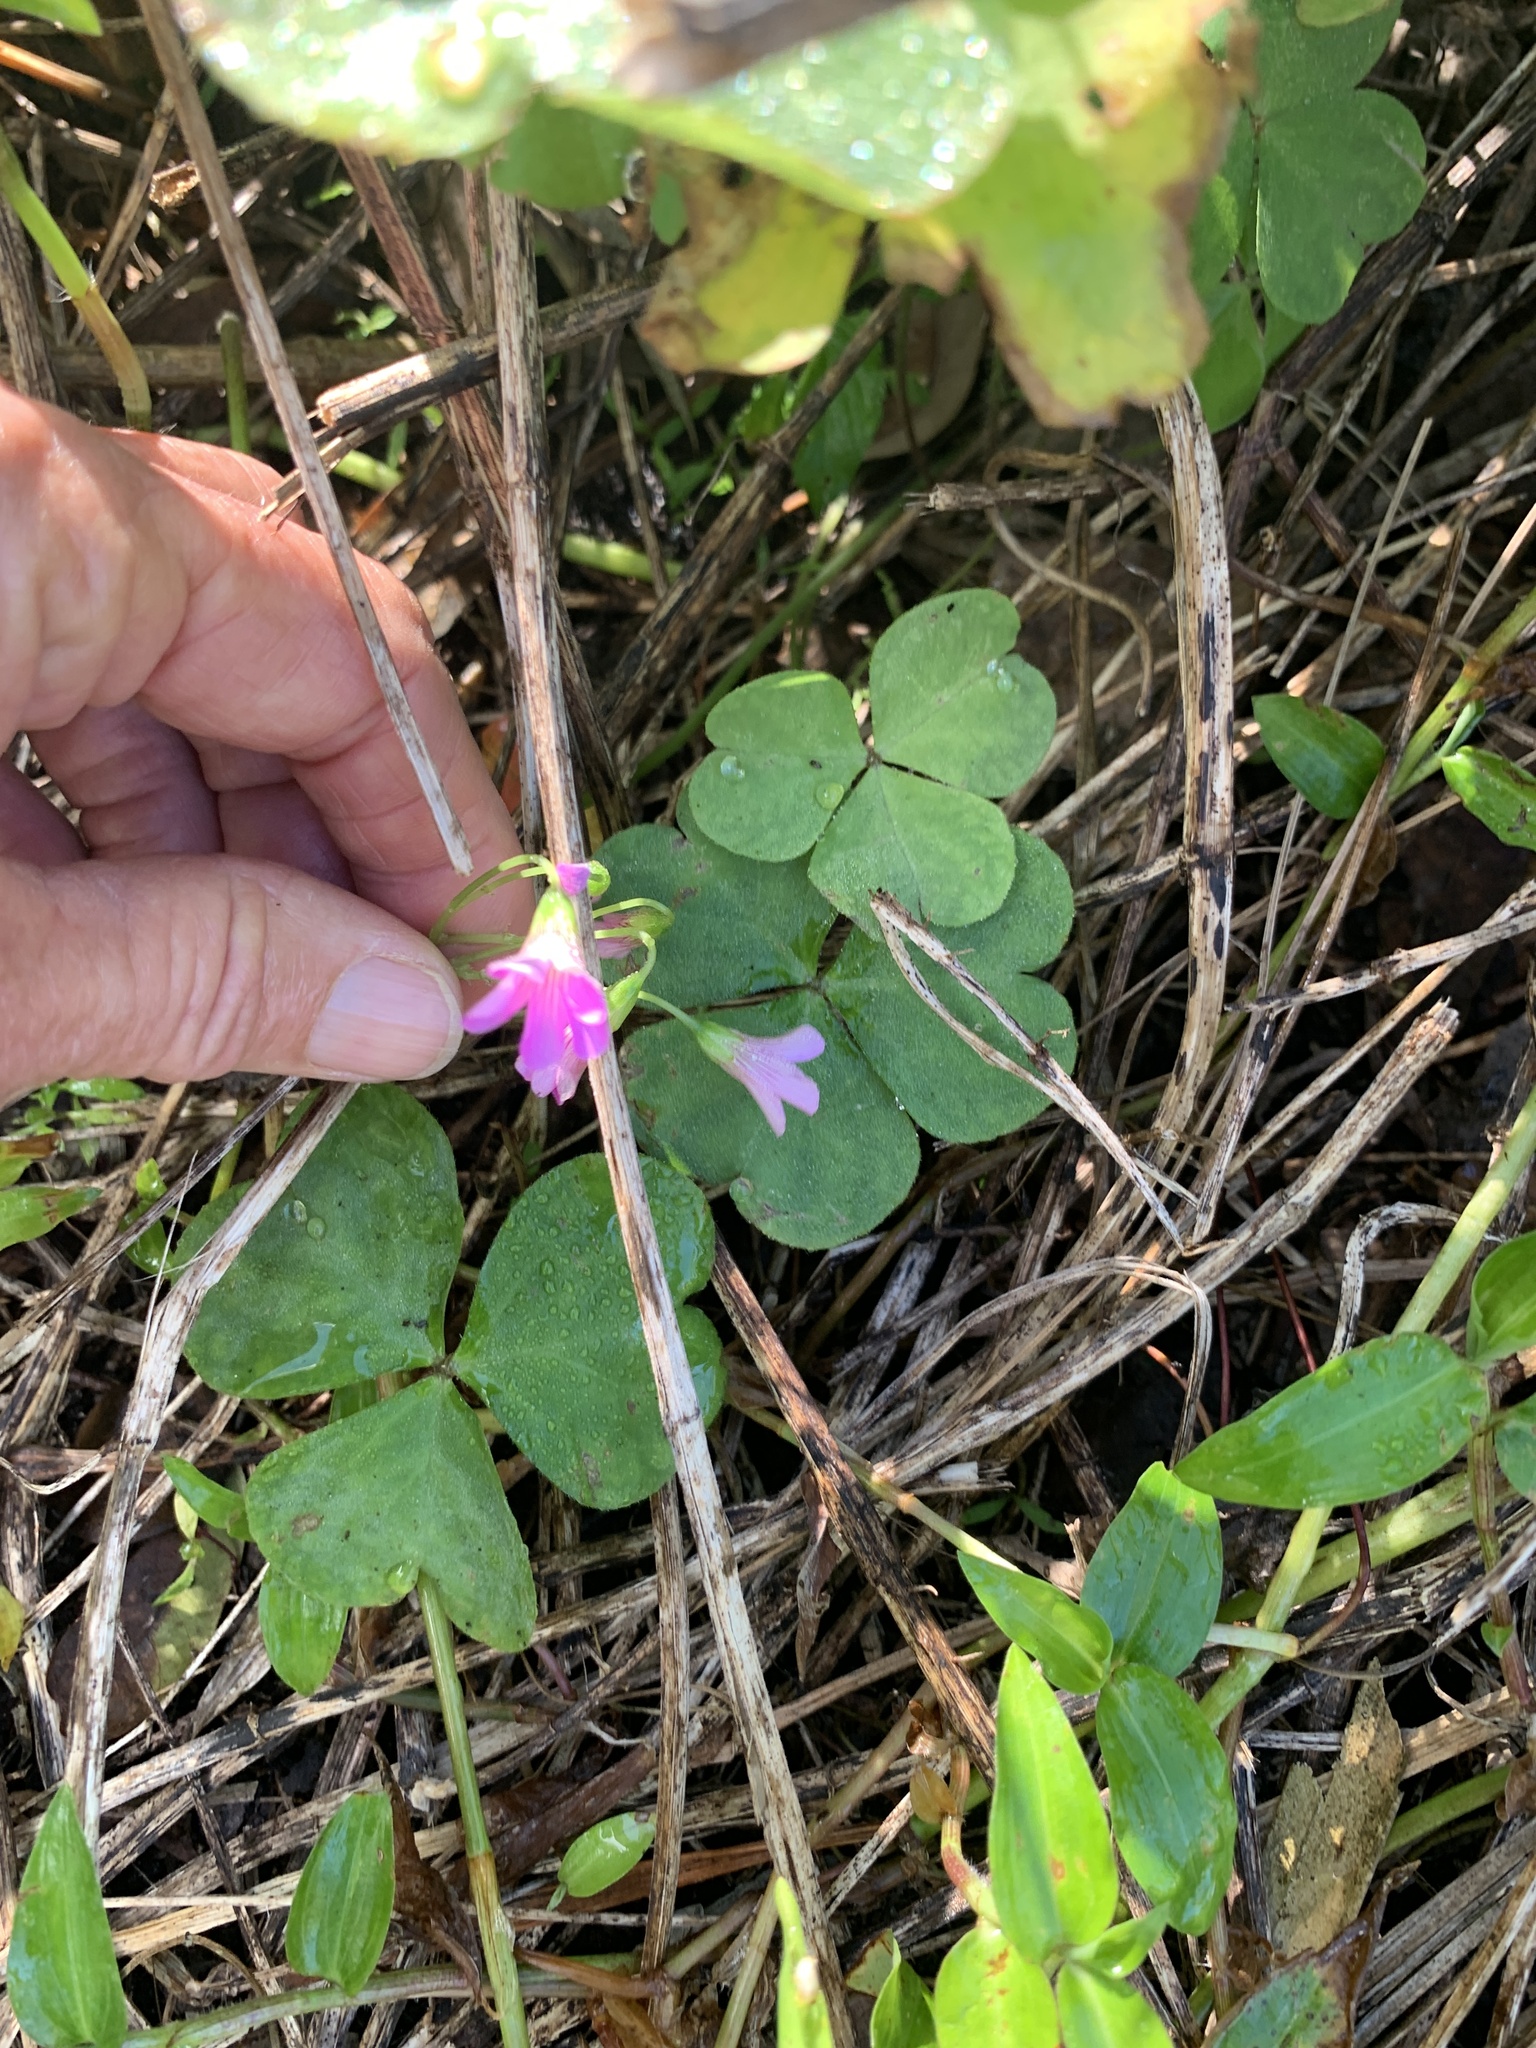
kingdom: Plantae
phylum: Tracheophyta
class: Magnoliopsida
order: Oxalidales
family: Oxalidaceae
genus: Oxalis
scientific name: Oxalis debilis
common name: Large-flowered pink-sorrel
